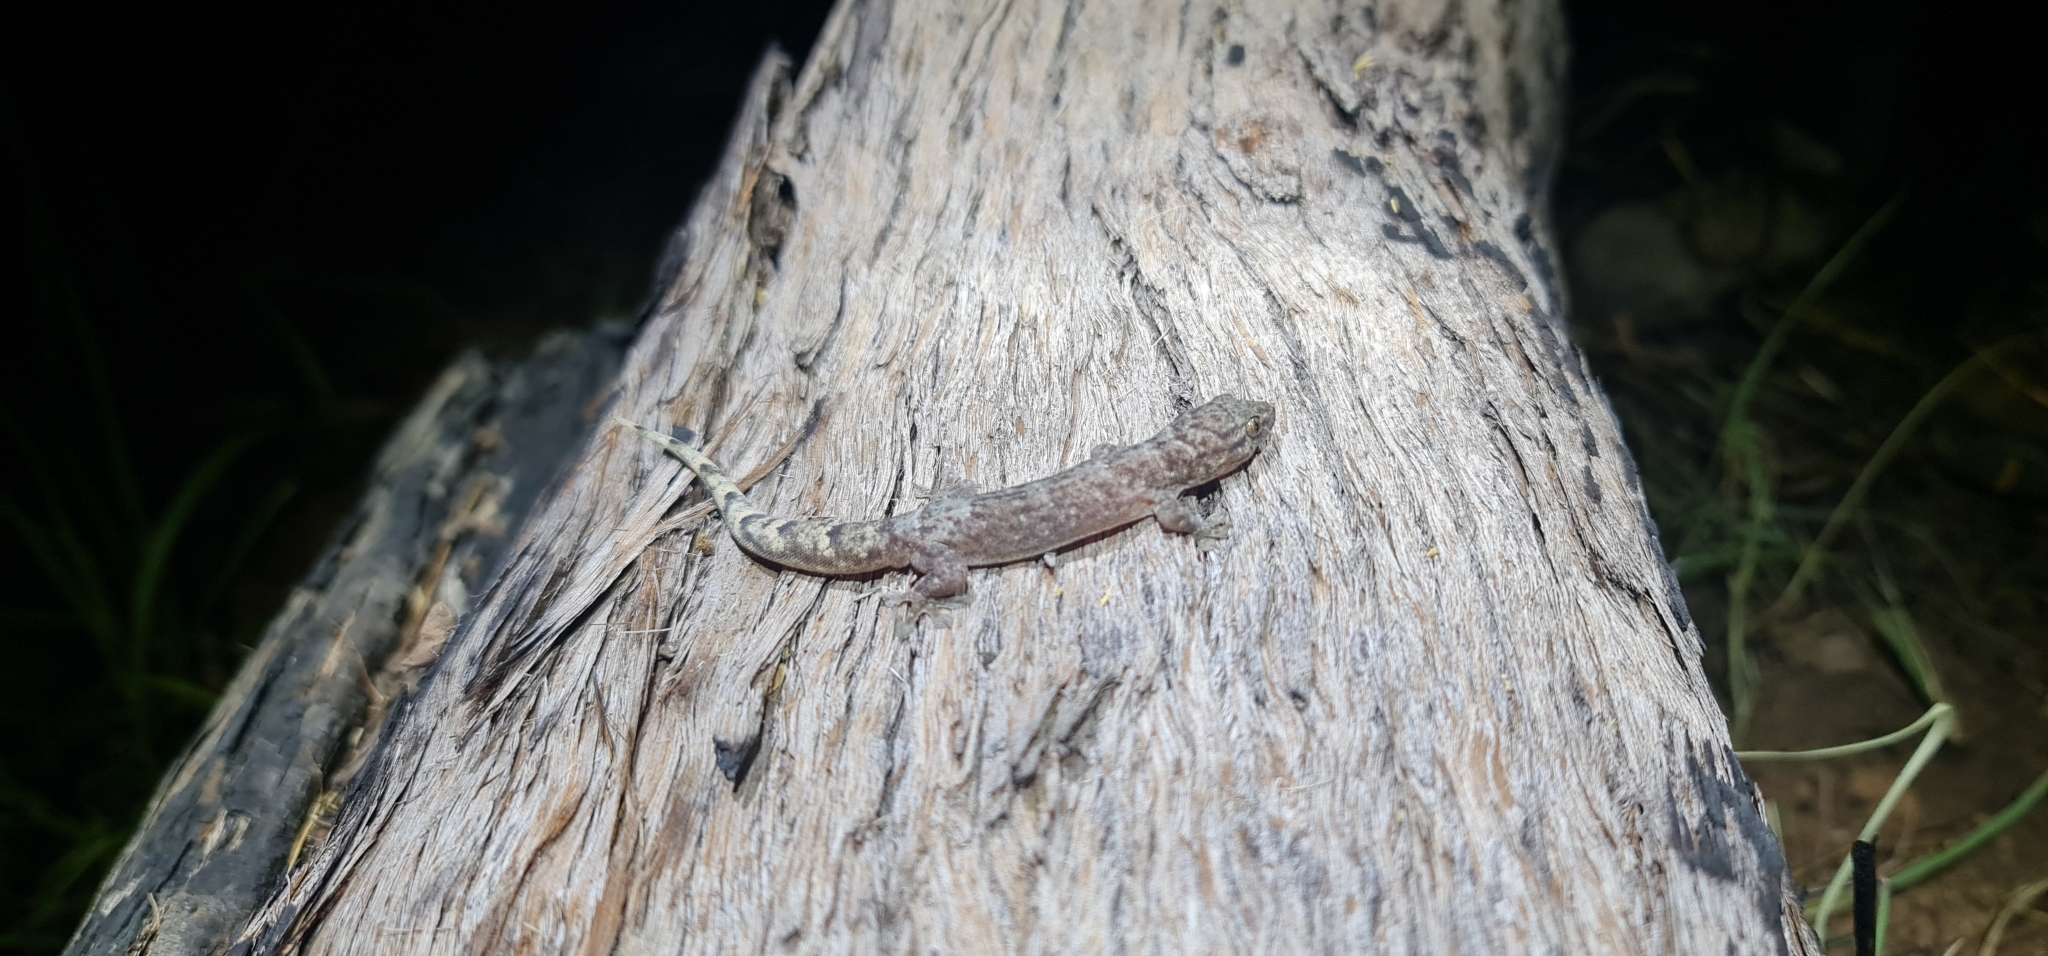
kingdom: Animalia
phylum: Chordata
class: Squamata
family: Gekkonidae
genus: Gehyra
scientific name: Gehyra australis
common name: House gecko
